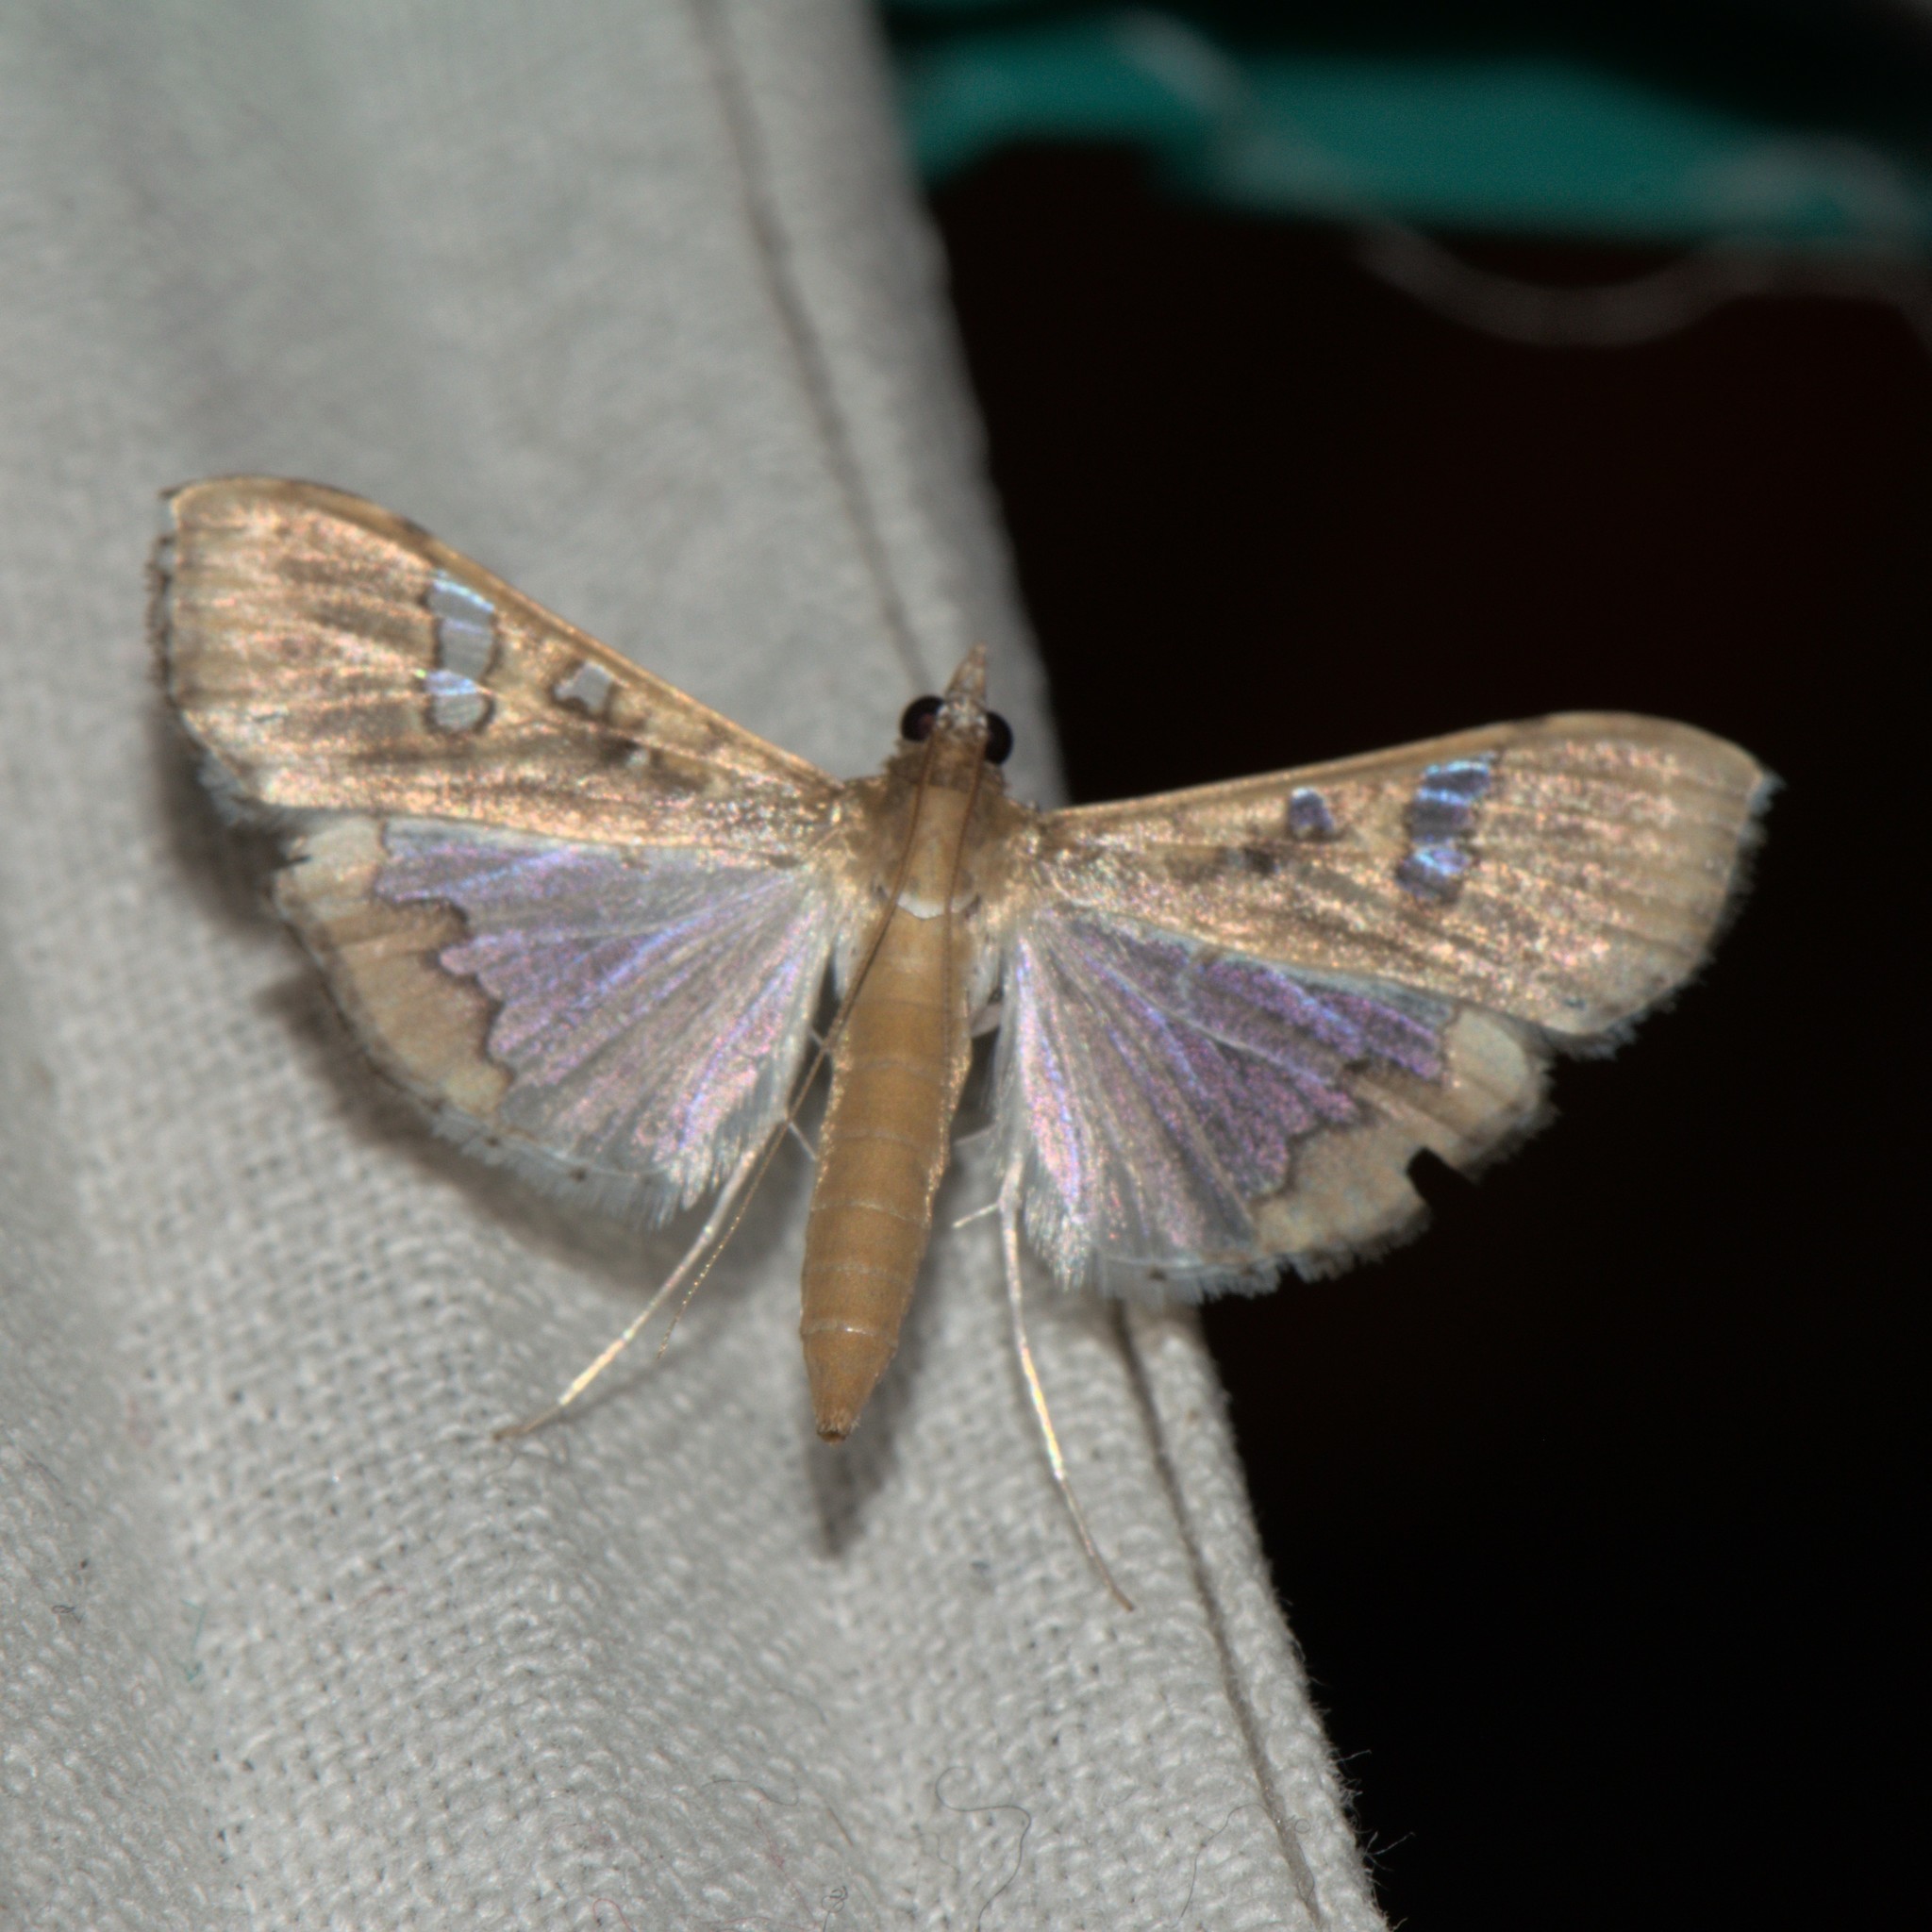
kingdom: Animalia
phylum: Arthropoda
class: Insecta
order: Lepidoptera
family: Crambidae
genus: Maruca
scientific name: Maruca vitrata
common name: Maruca pod borer
